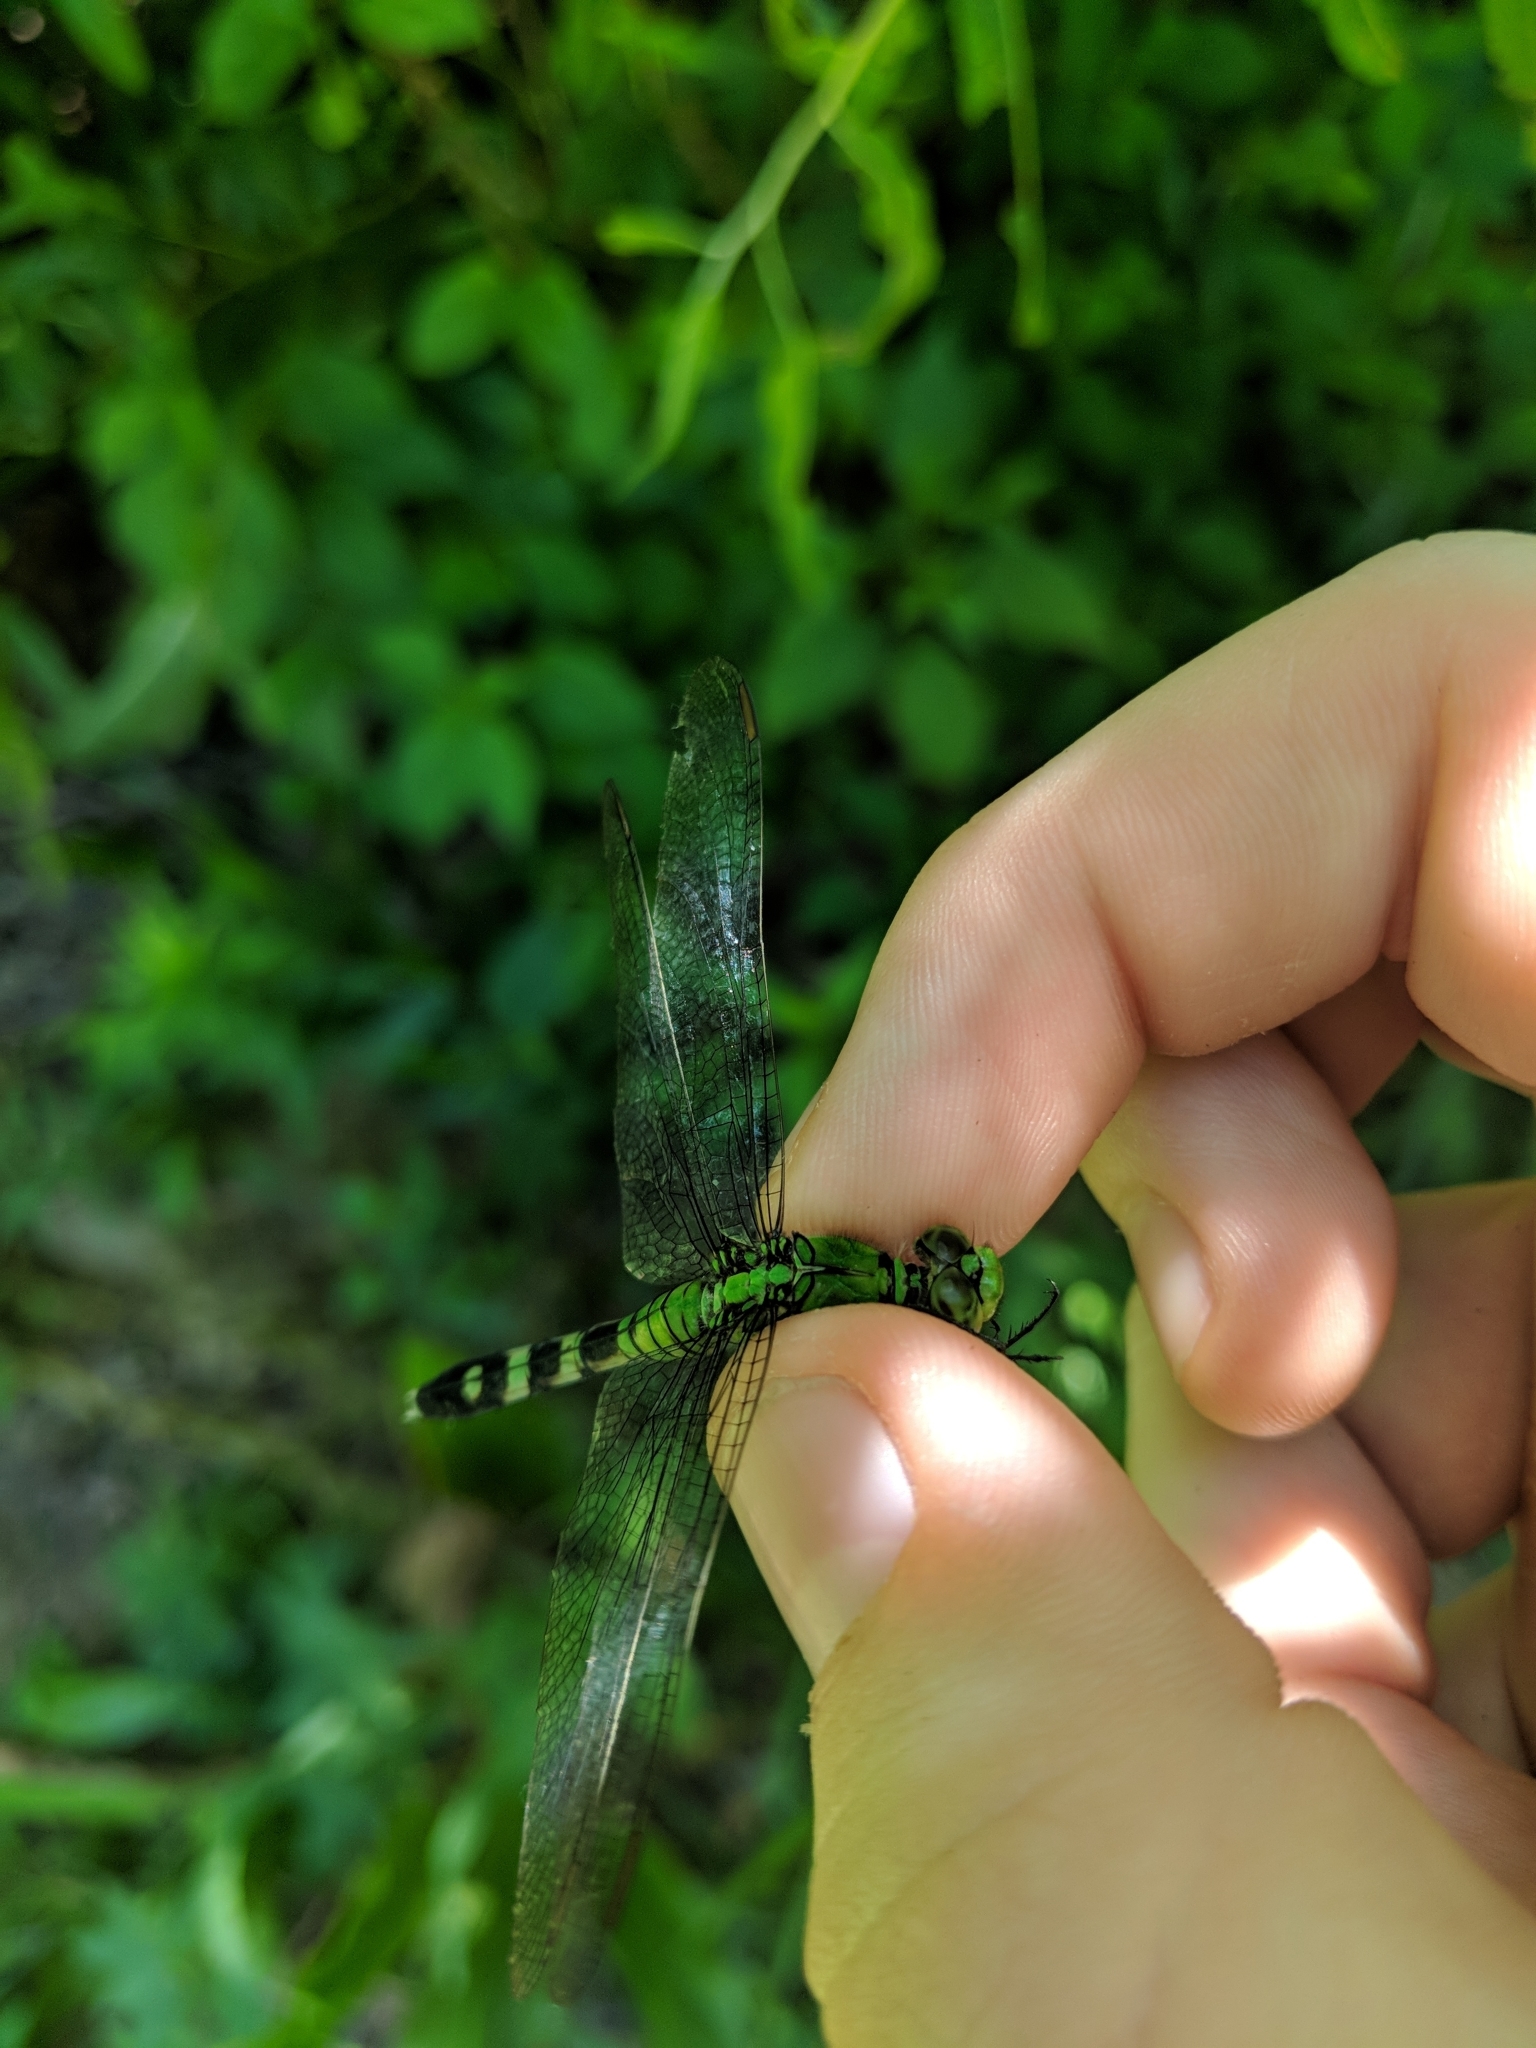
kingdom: Animalia
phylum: Arthropoda
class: Insecta
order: Odonata
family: Libellulidae
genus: Erythemis
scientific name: Erythemis simplicicollis
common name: Eastern pondhawk
